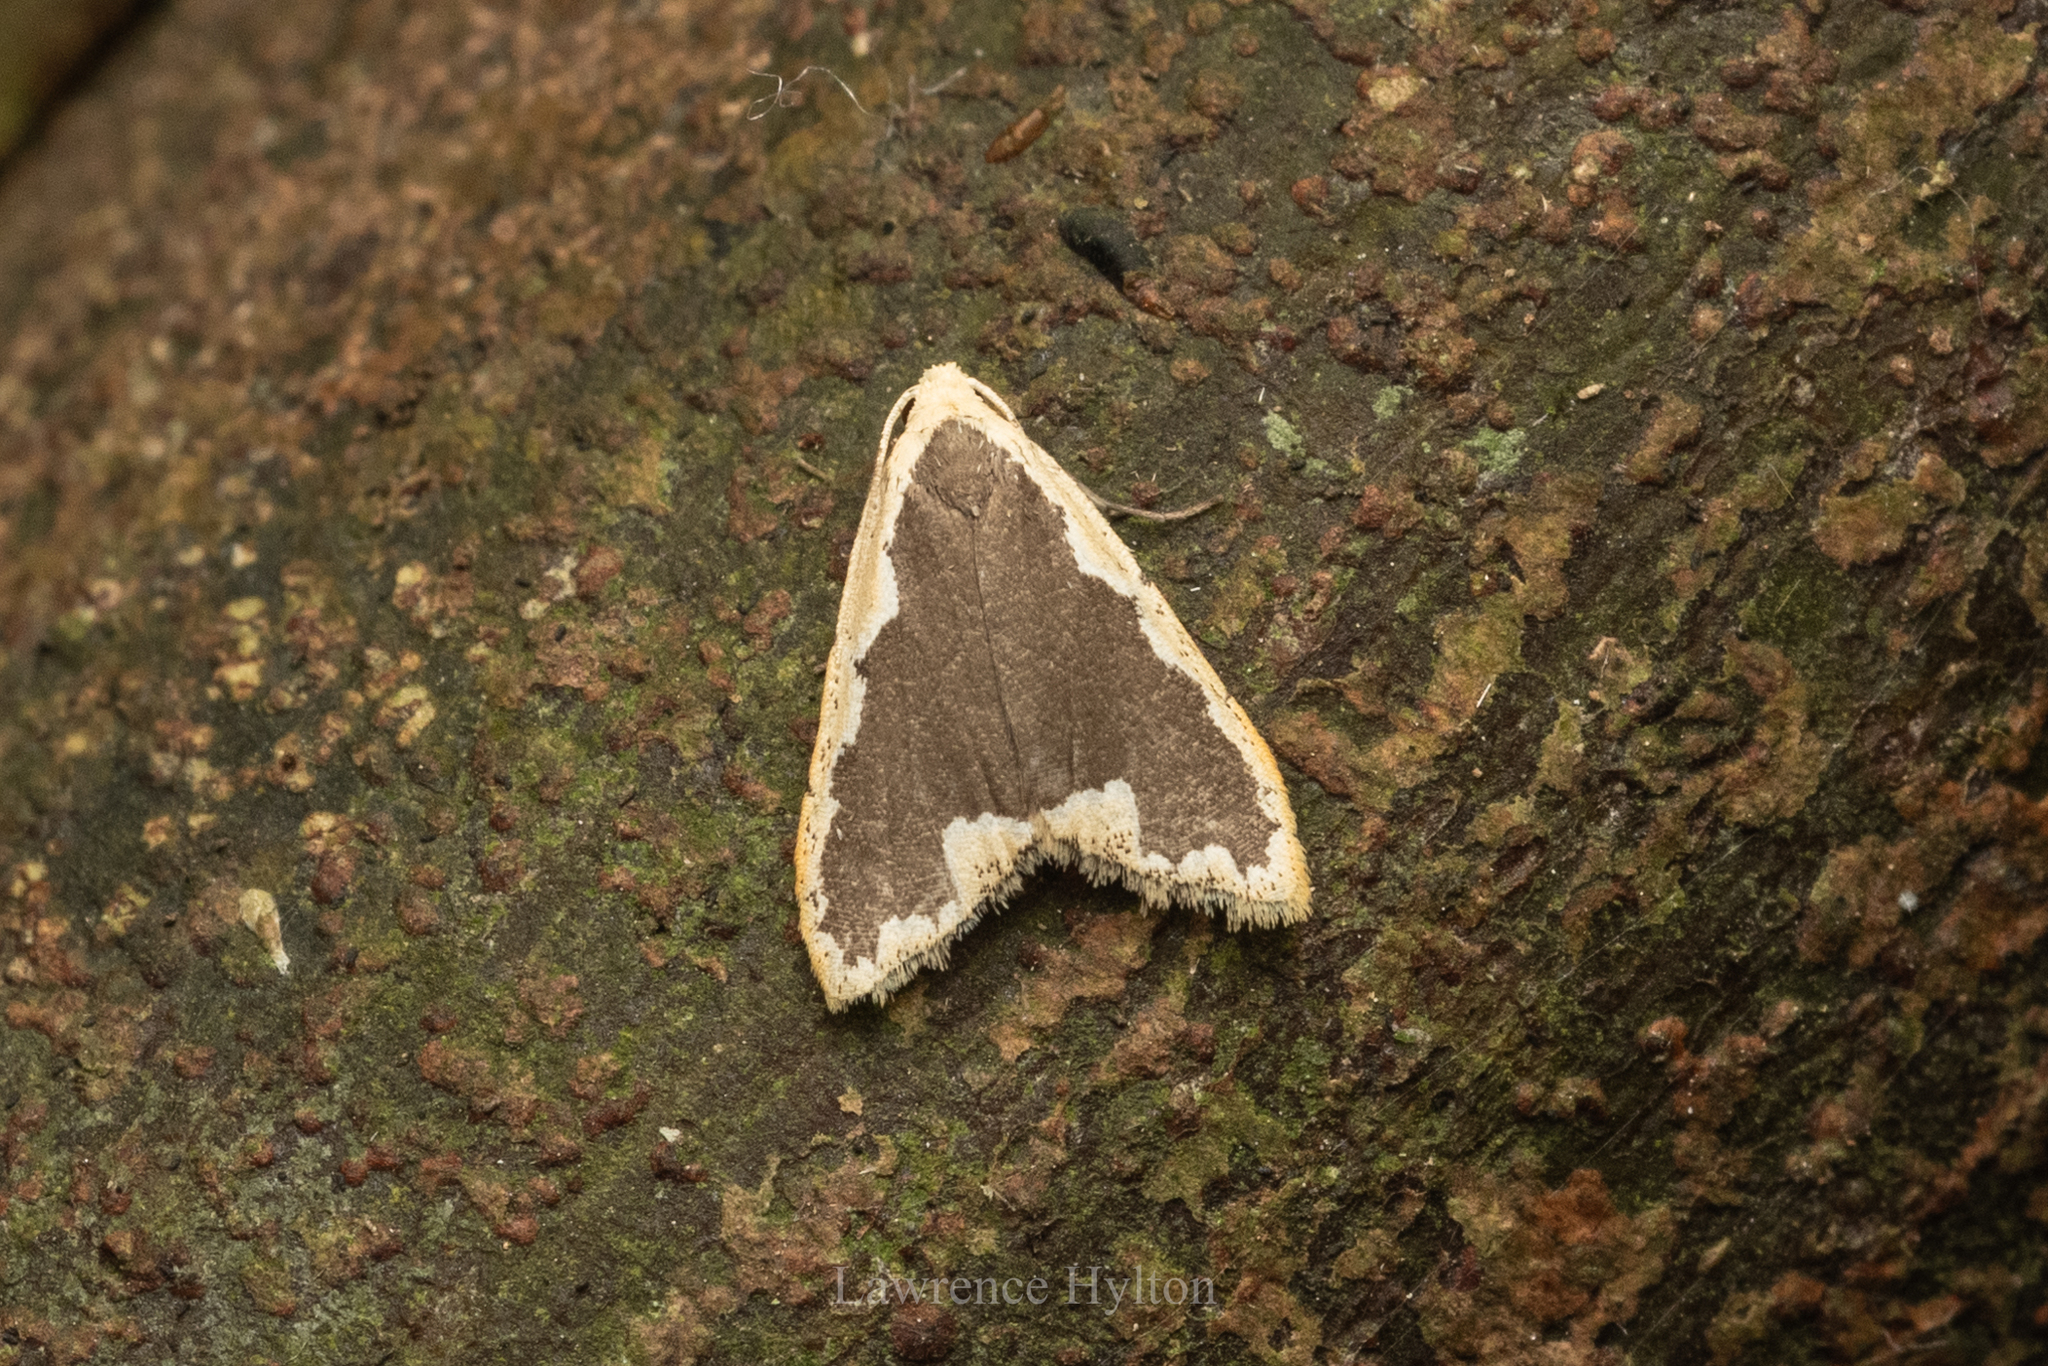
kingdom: Animalia
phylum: Arthropoda
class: Insecta
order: Lepidoptera
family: Erebidae
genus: Diduga
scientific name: Diduga flavicostata
